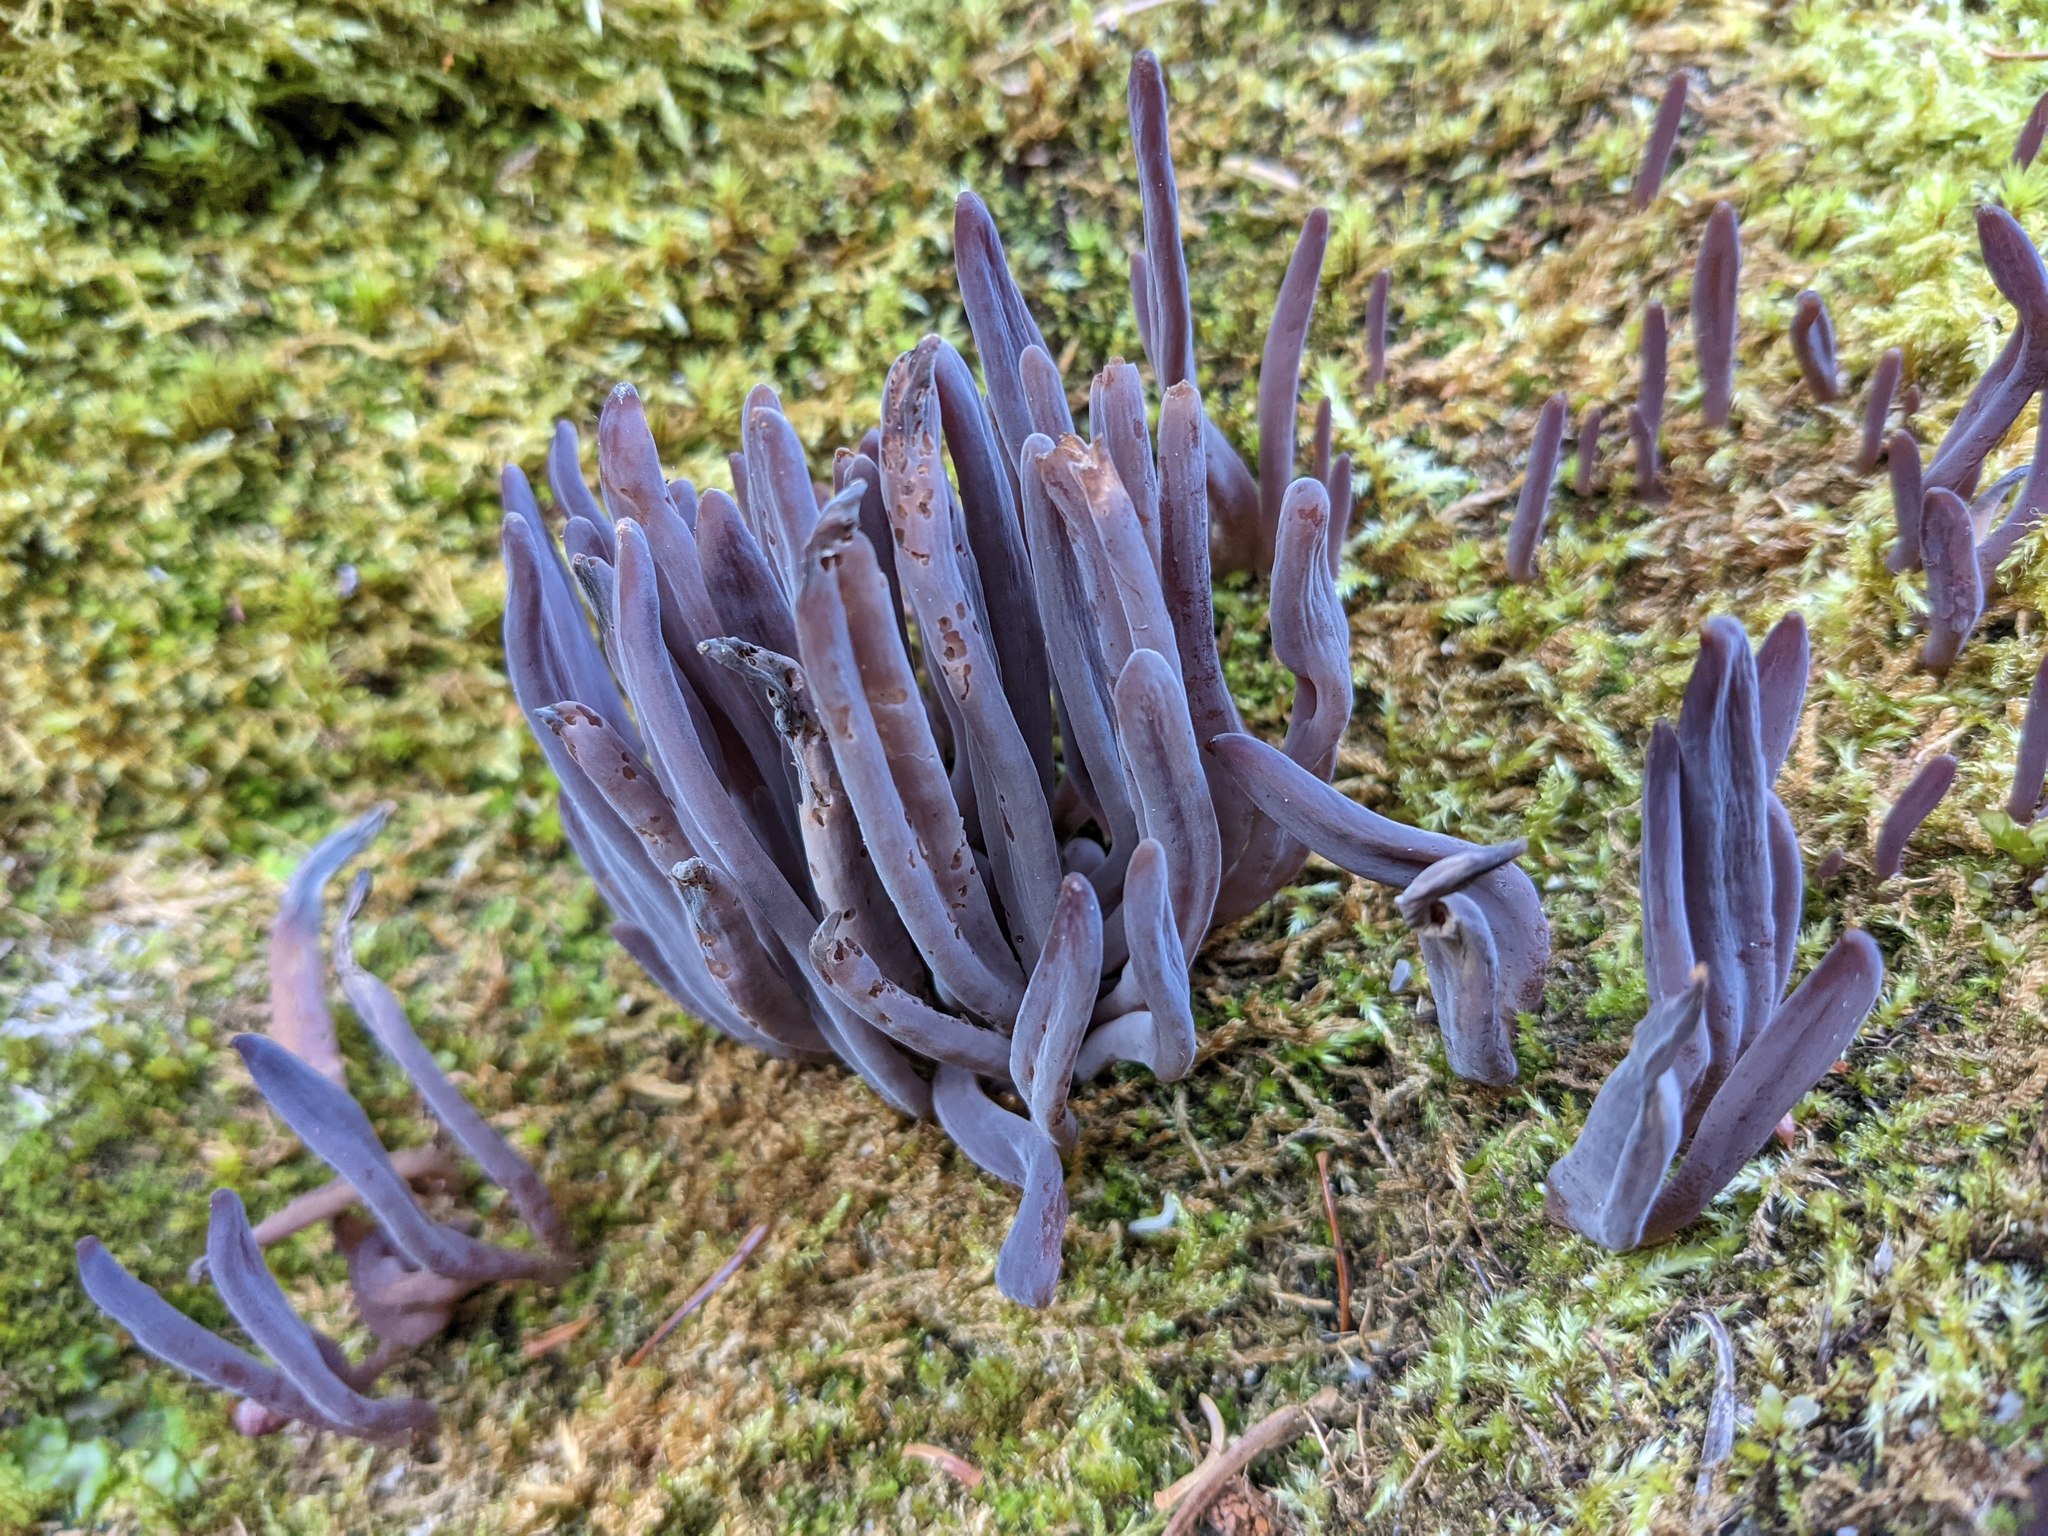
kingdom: Fungi
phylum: Basidiomycota
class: Agaricomycetes
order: Hymenochaetales
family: Rickenellaceae
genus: Alloclavaria
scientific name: Alloclavaria purpurea
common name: Purple spindles
